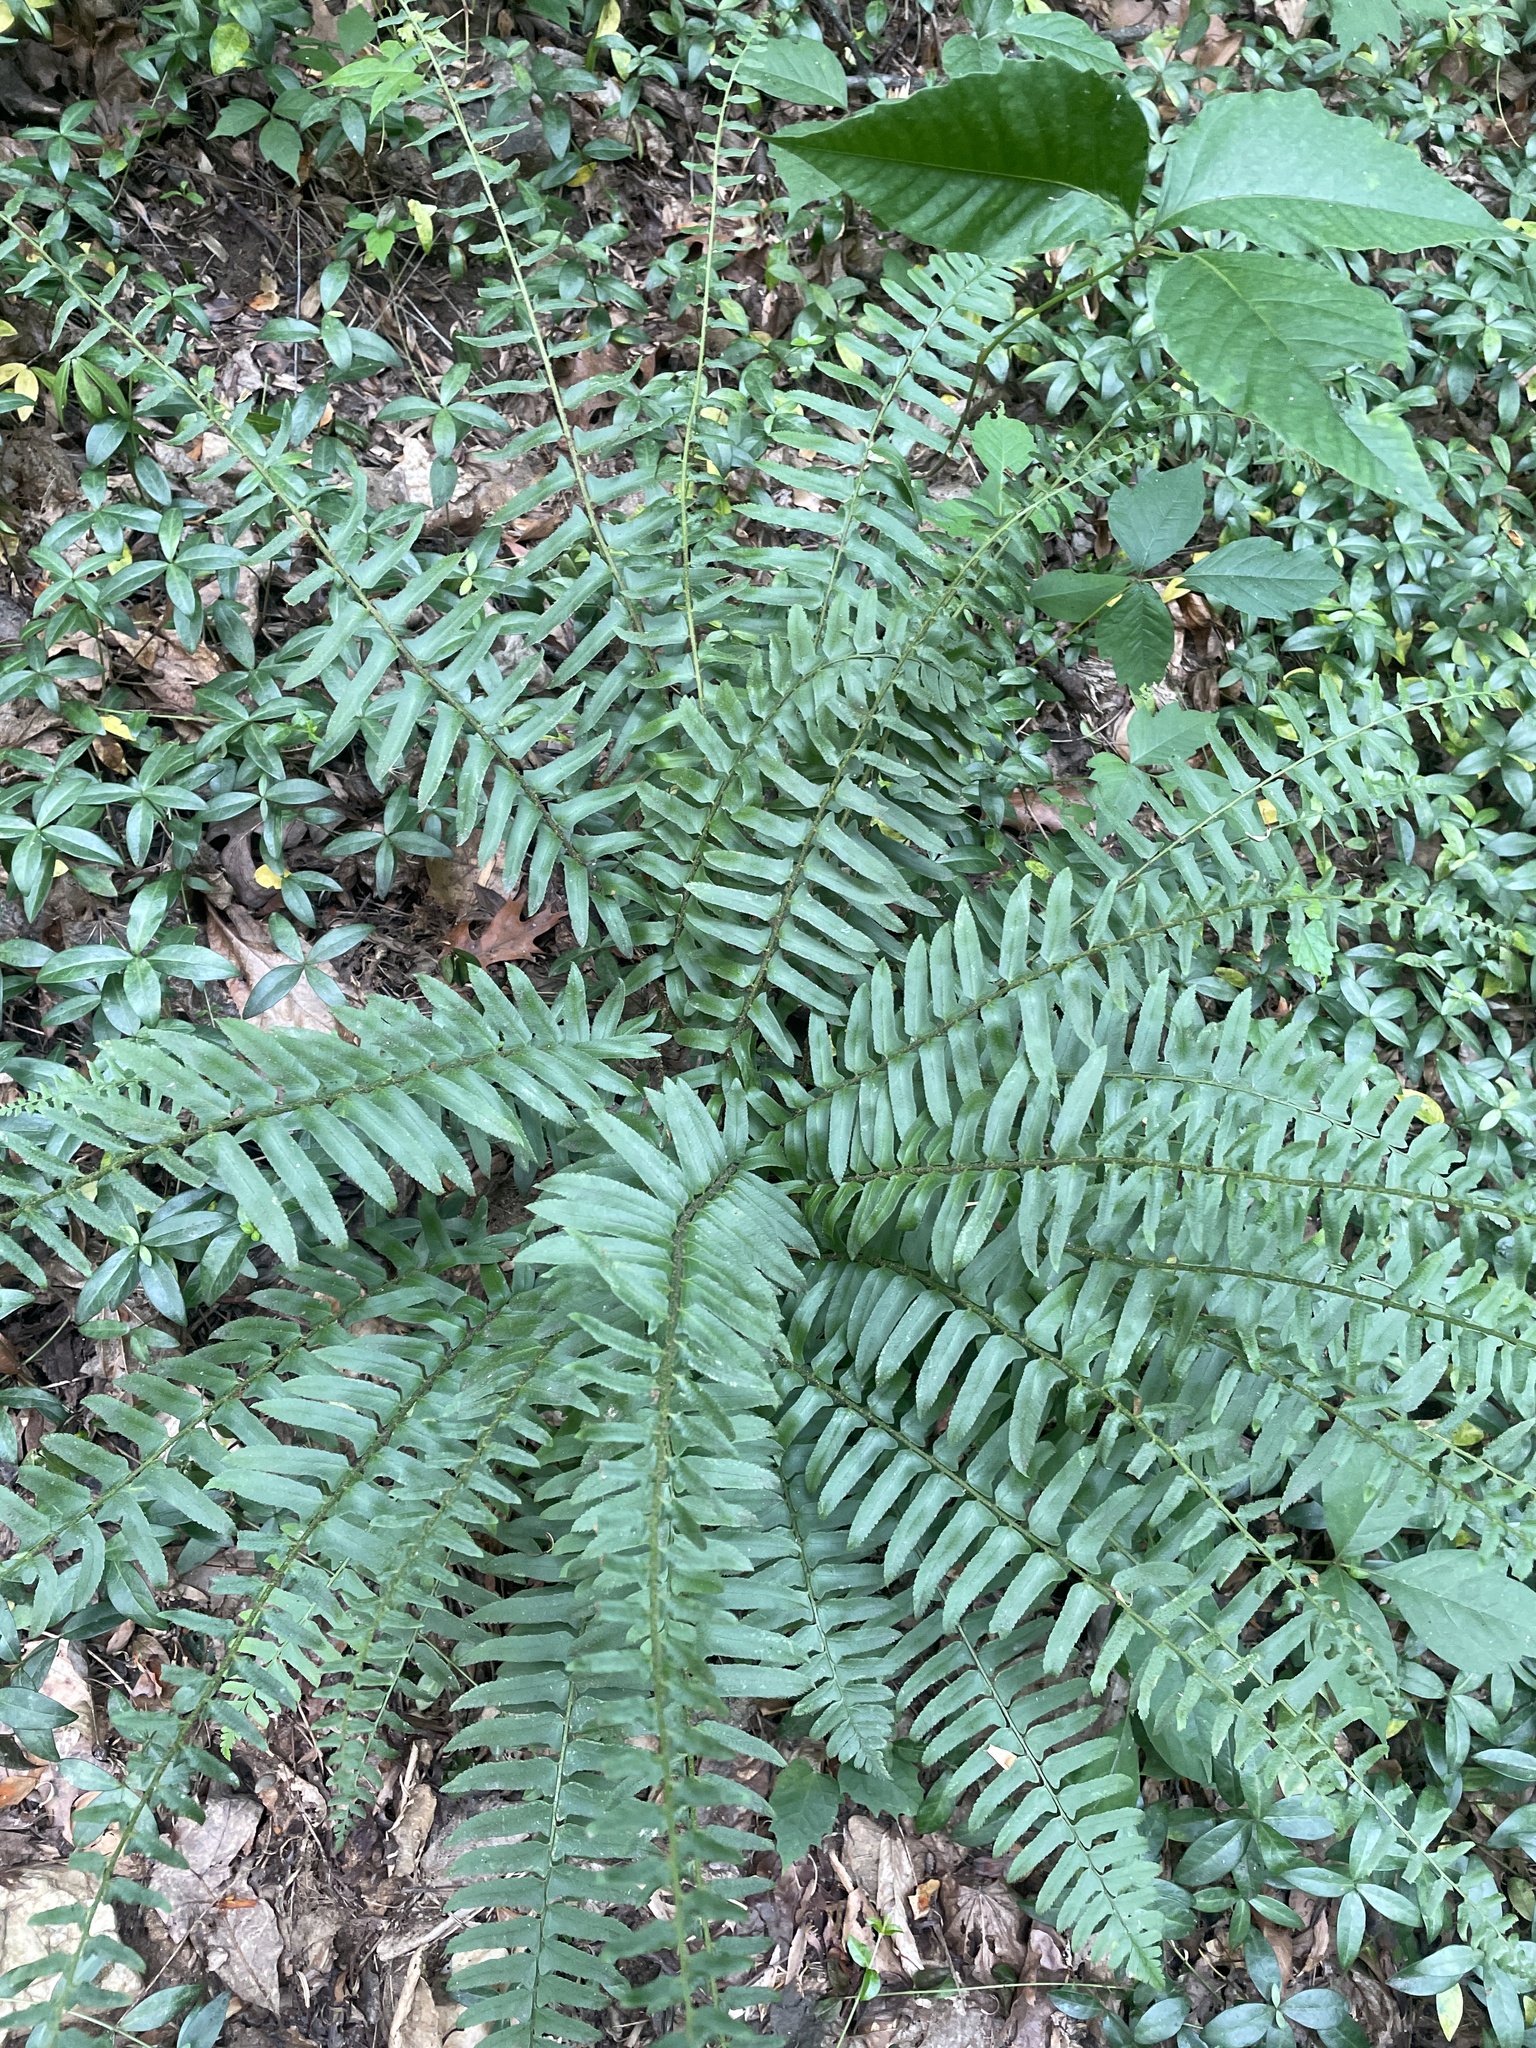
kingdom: Plantae
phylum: Tracheophyta
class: Polypodiopsida
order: Polypodiales
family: Dryopteridaceae
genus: Polystichum
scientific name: Polystichum acrostichoides
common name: Christmas fern
